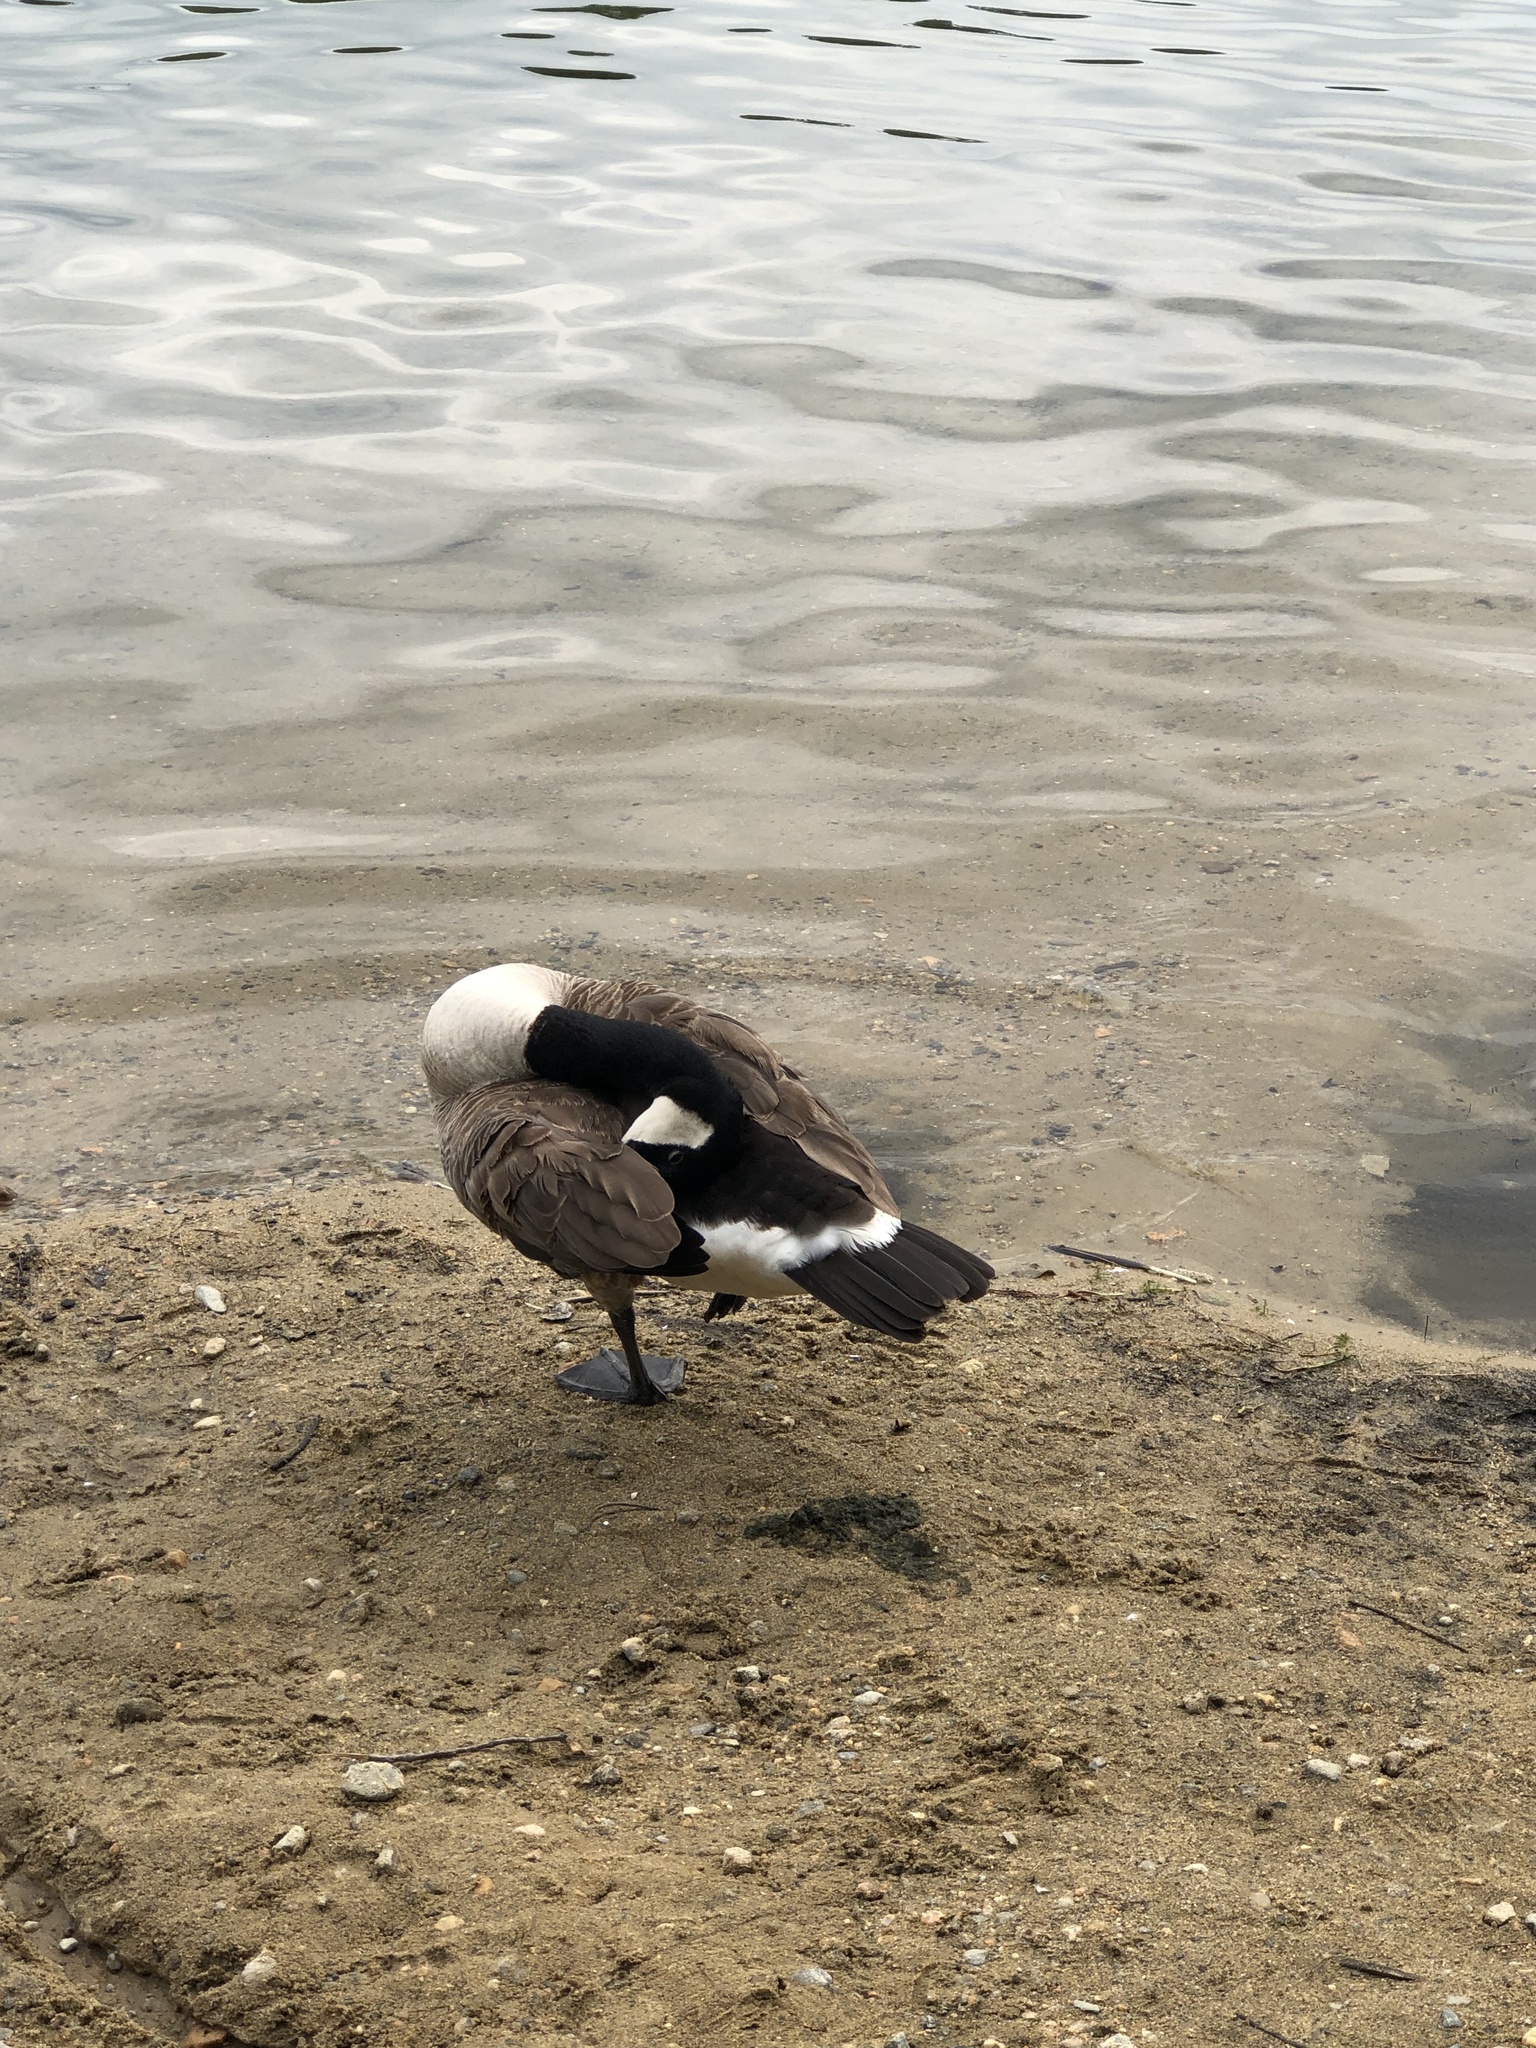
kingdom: Animalia
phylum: Chordata
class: Aves
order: Anseriformes
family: Anatidae
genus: Branta
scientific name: Branta canadensis
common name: Canada goose
